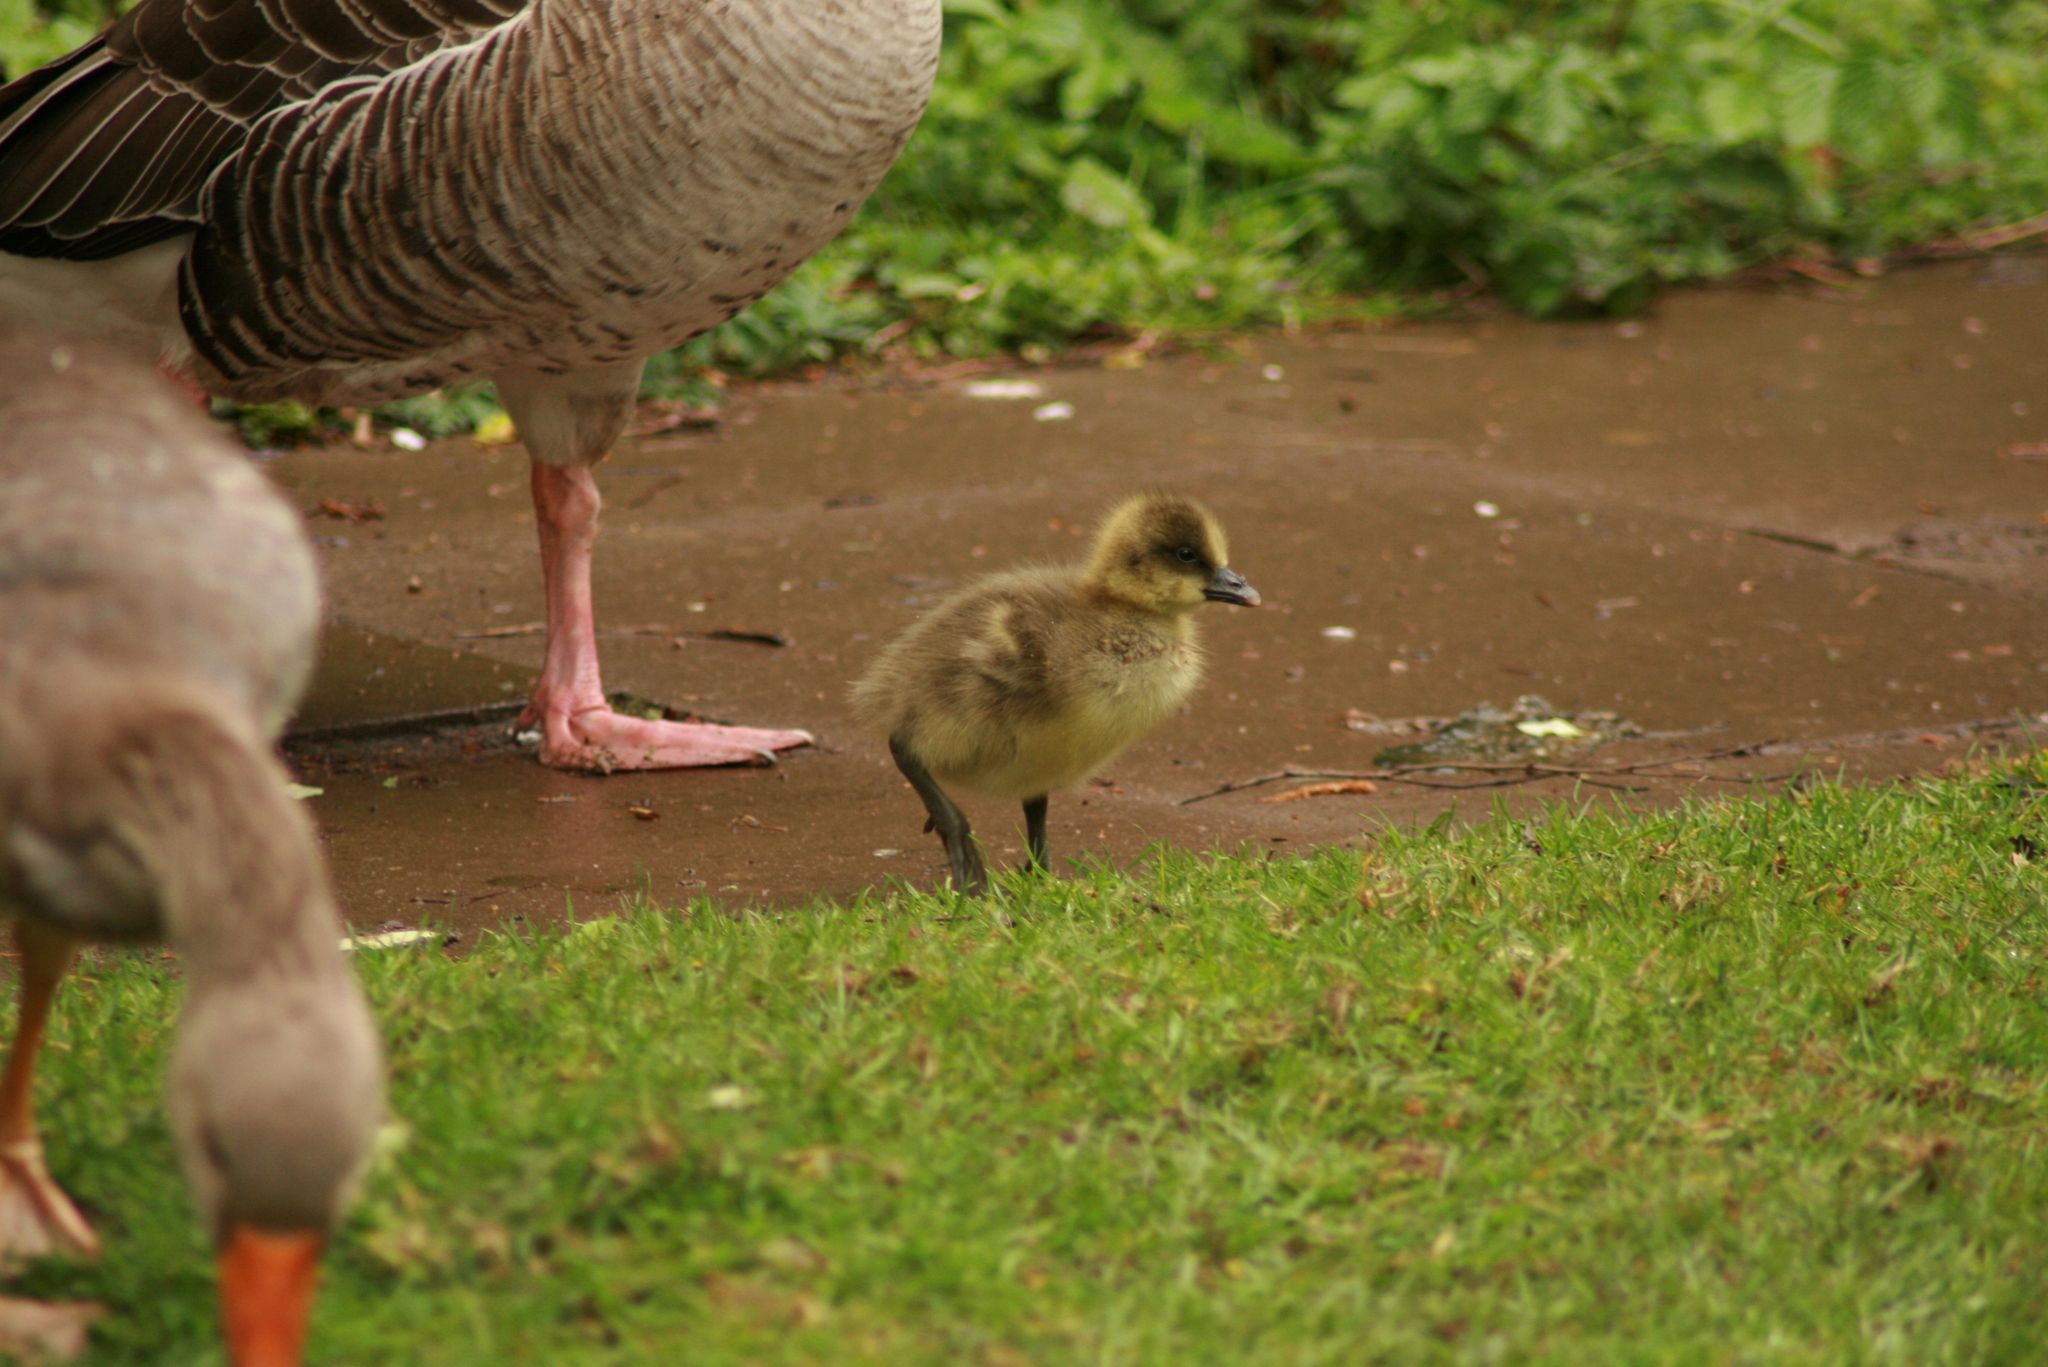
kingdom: Animalia
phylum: Chordata
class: Aves
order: Anseriformes
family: Anatidae
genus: Anser
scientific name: Anser anser
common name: Greylag goose
